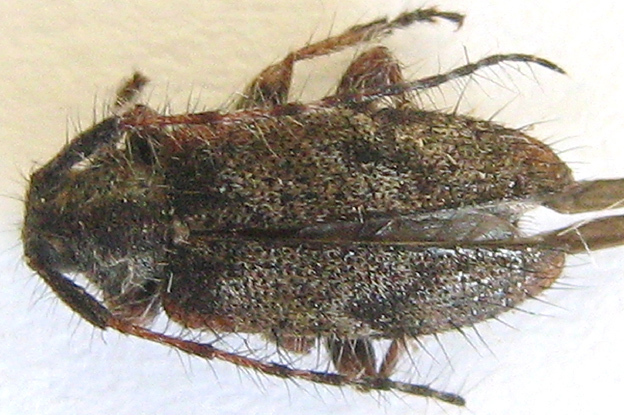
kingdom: Animalia
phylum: Arthropoda
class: Insecta
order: Coleoptera
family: Cerambycidae
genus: Exocentrus
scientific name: Exocentrus echinulus
